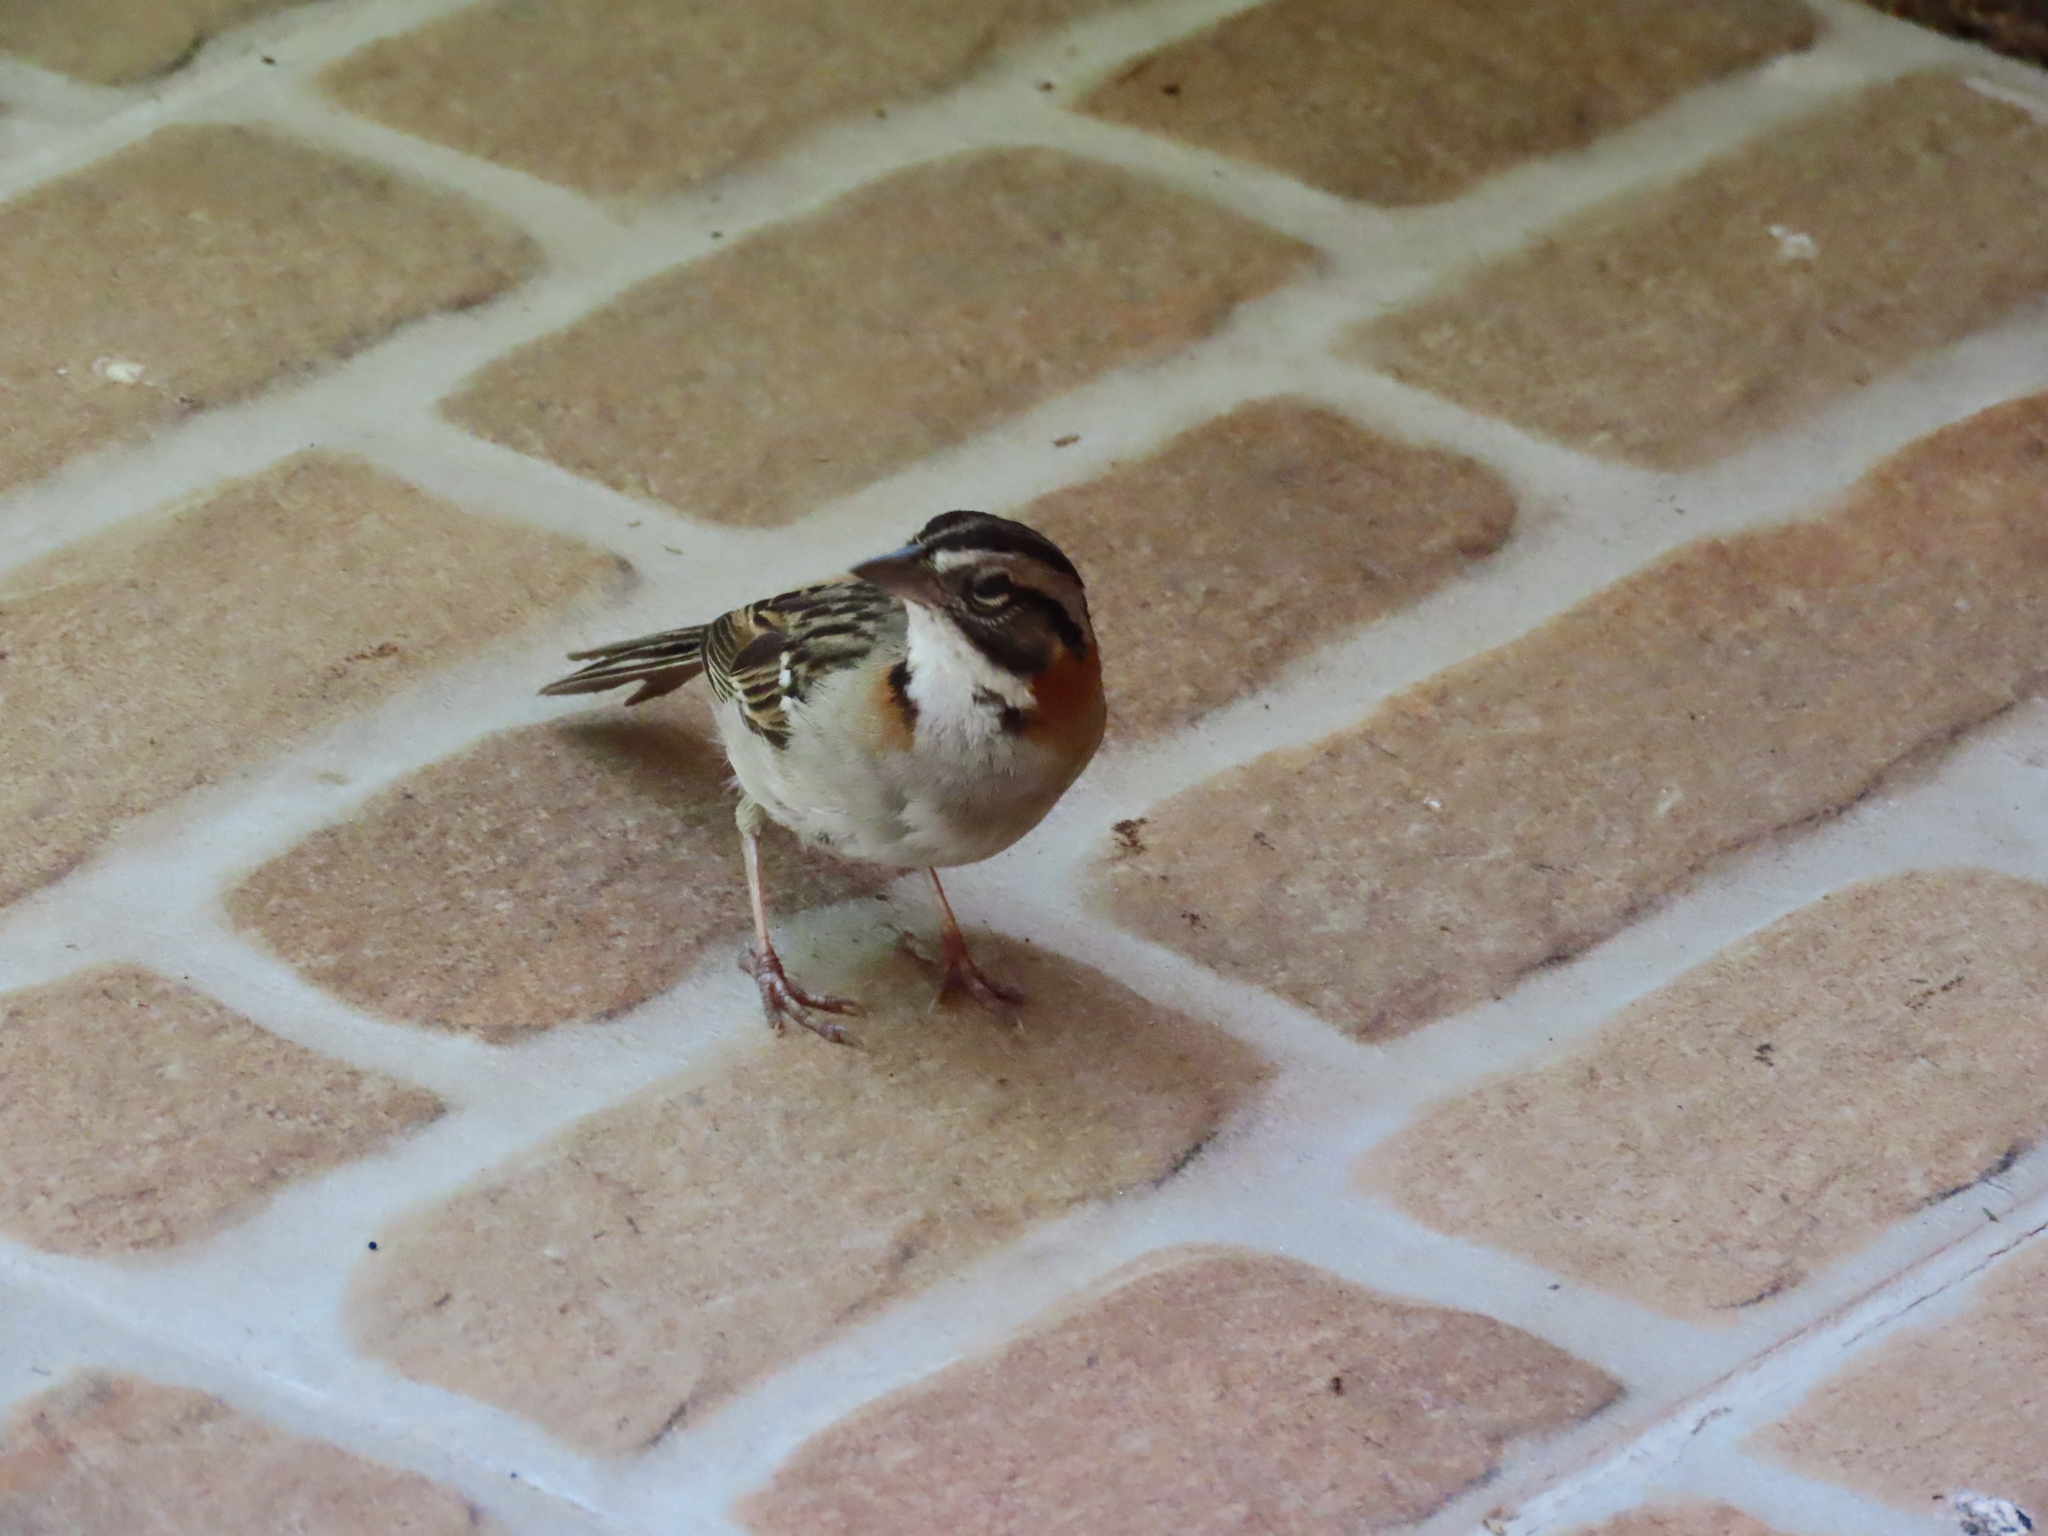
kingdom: Animalia
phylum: Chordata
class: Aves
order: Passeriformes
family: Passerellidae
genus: Zonotrichia
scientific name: Zonotrichia capensis
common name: Rufous-collared sparrow
